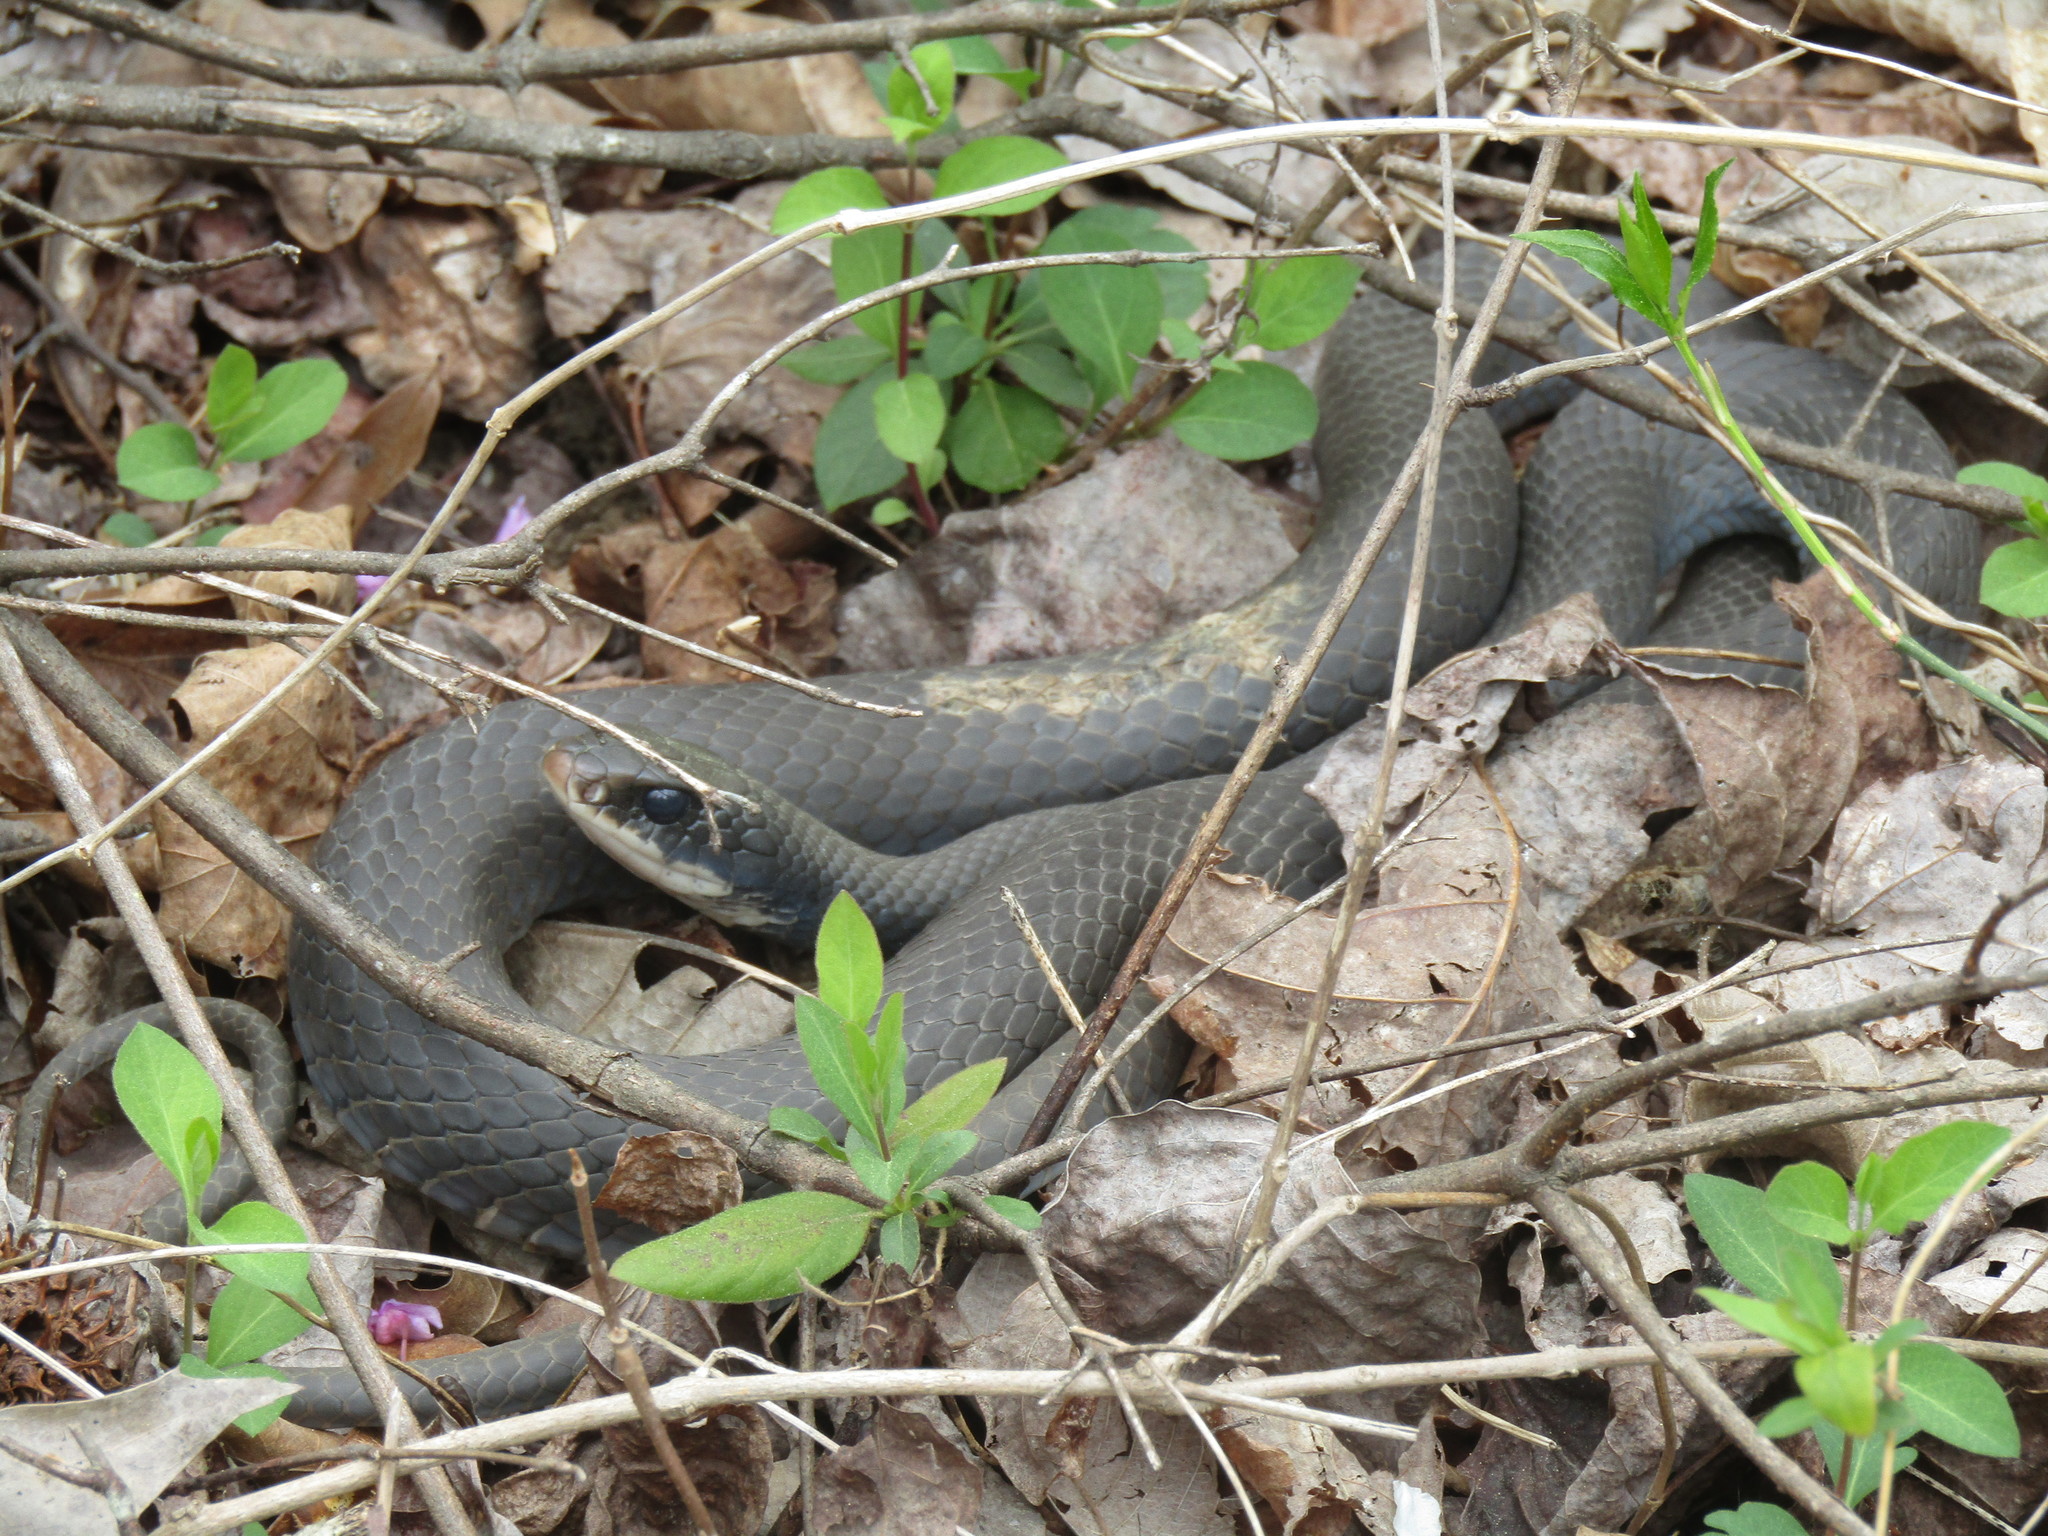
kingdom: Animalia
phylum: Chordata
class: Squamata
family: Colubridae
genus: Coluber
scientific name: Coluber constrictor
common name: Eastern racer
